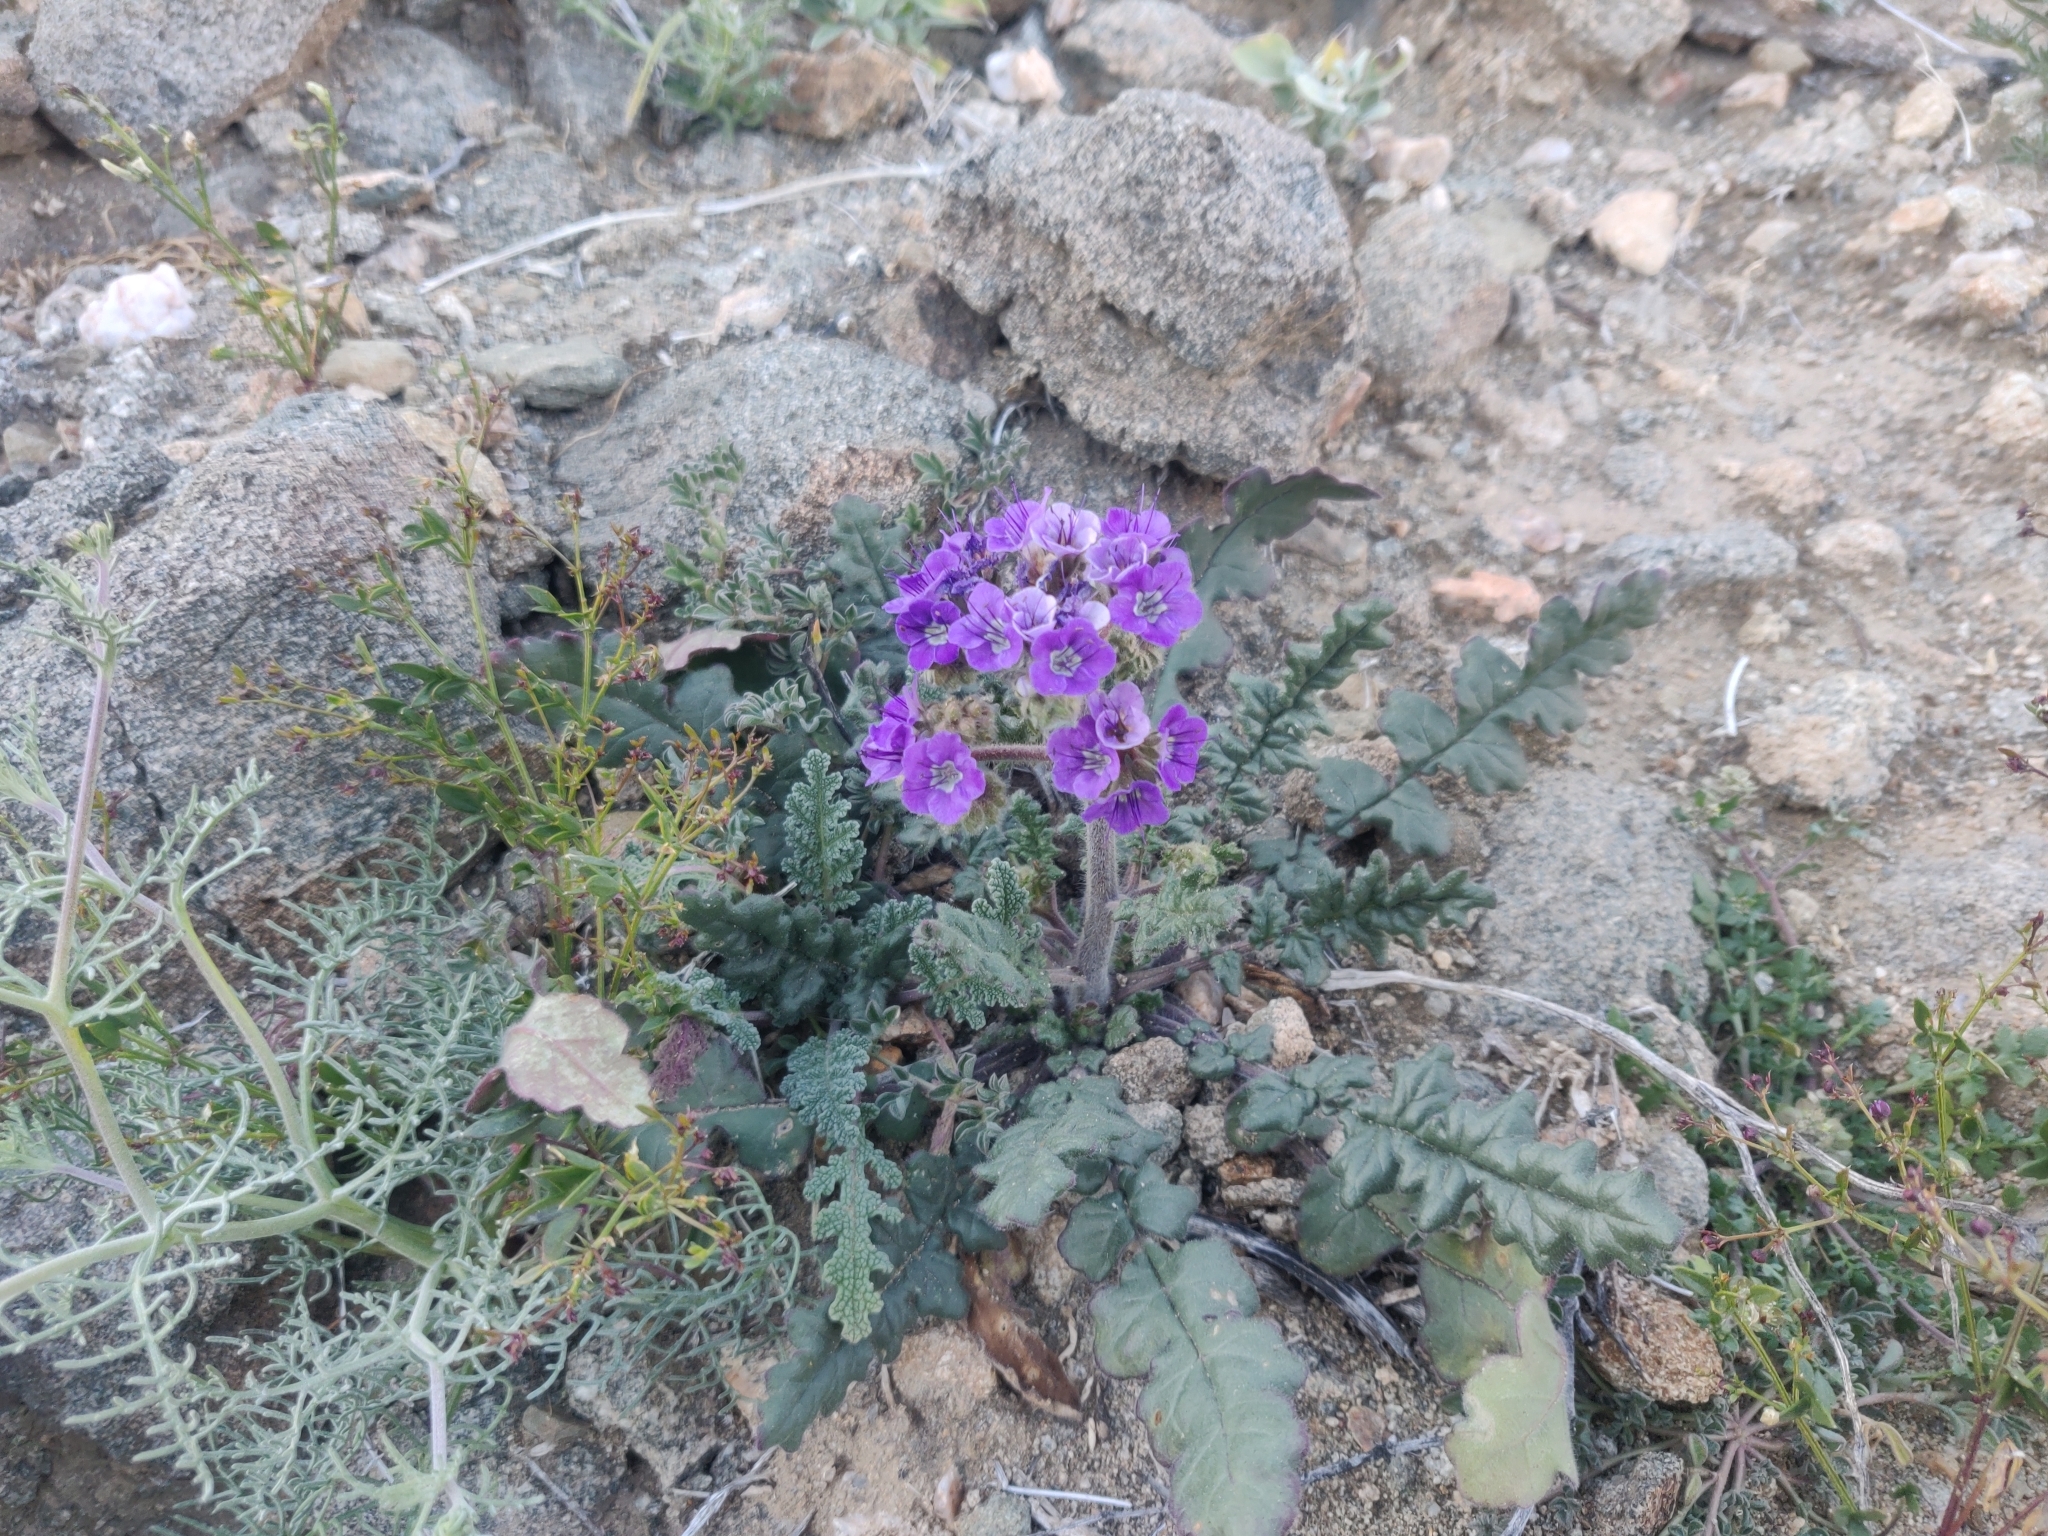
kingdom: Plantae
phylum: Tracheophyta
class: Magnoliopsida
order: Boraginales
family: Hydrophyllaceae
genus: Phacelia
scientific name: Phacelia crenulata
